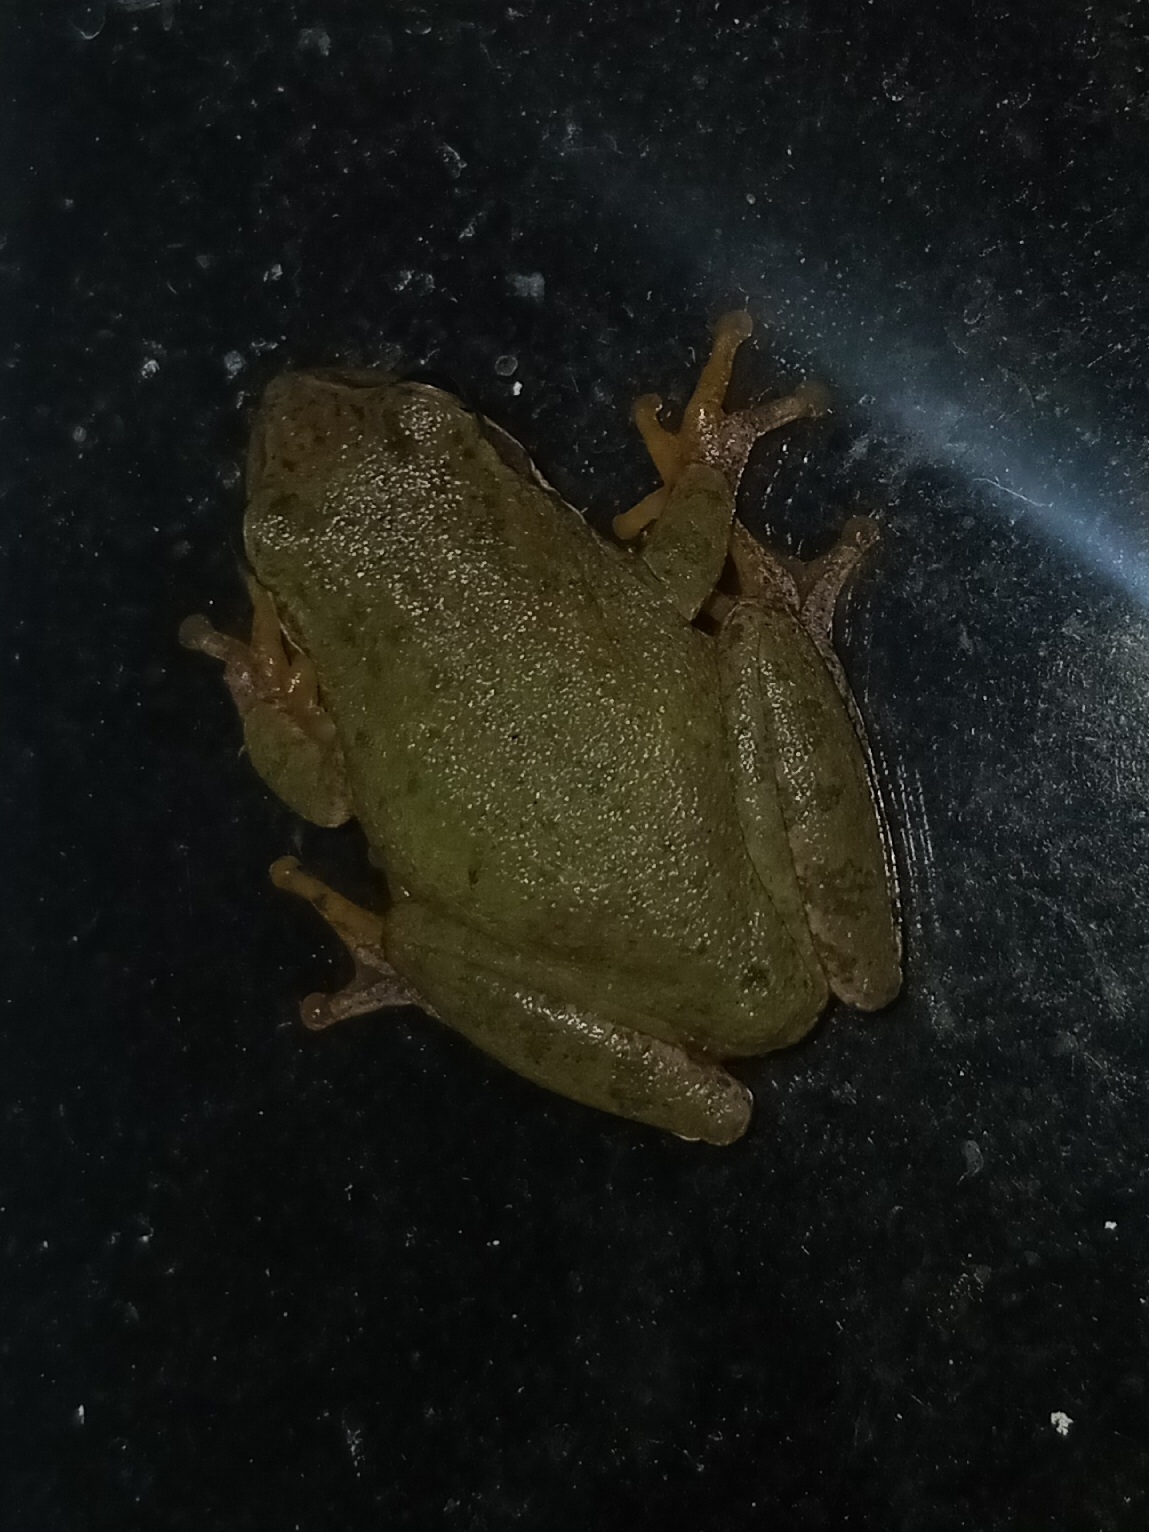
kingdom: Animalia
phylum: Chordata
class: Amphibia
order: Anura
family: Hylidae
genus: Dryophytes
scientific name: Dryophytes squirellus
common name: Squirrel treefrog
